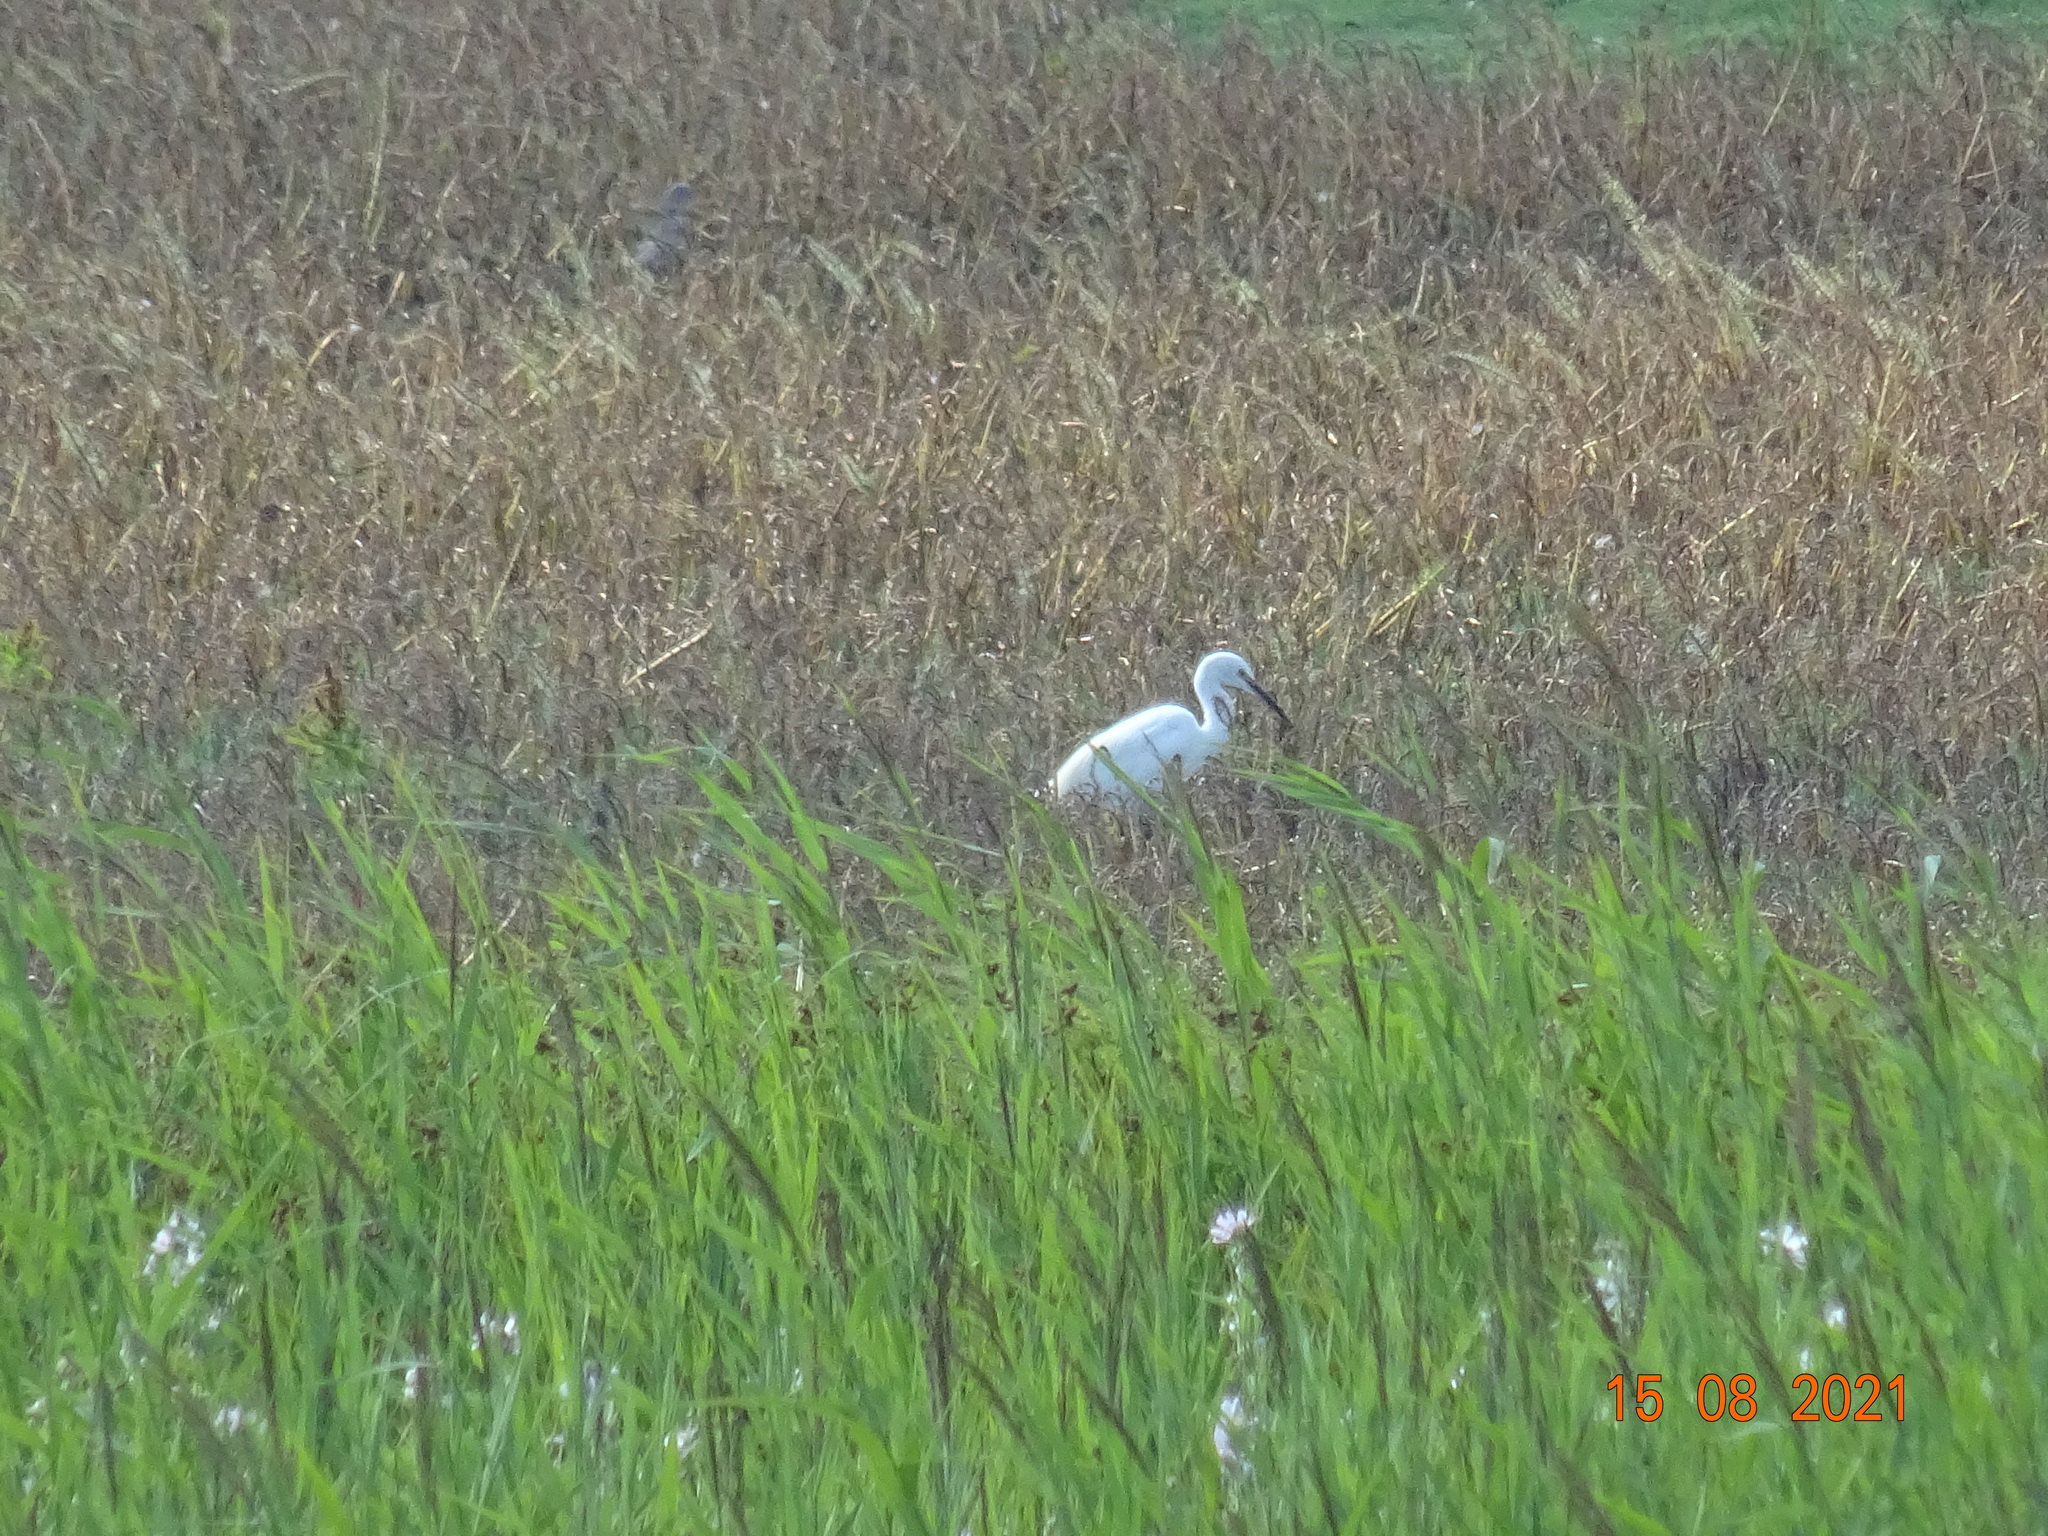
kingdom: Animalia
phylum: Chordata
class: Aves
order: Pelecaniformes
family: Ardeidae
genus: Egretta
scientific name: Egretta garzetta
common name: Little egret
